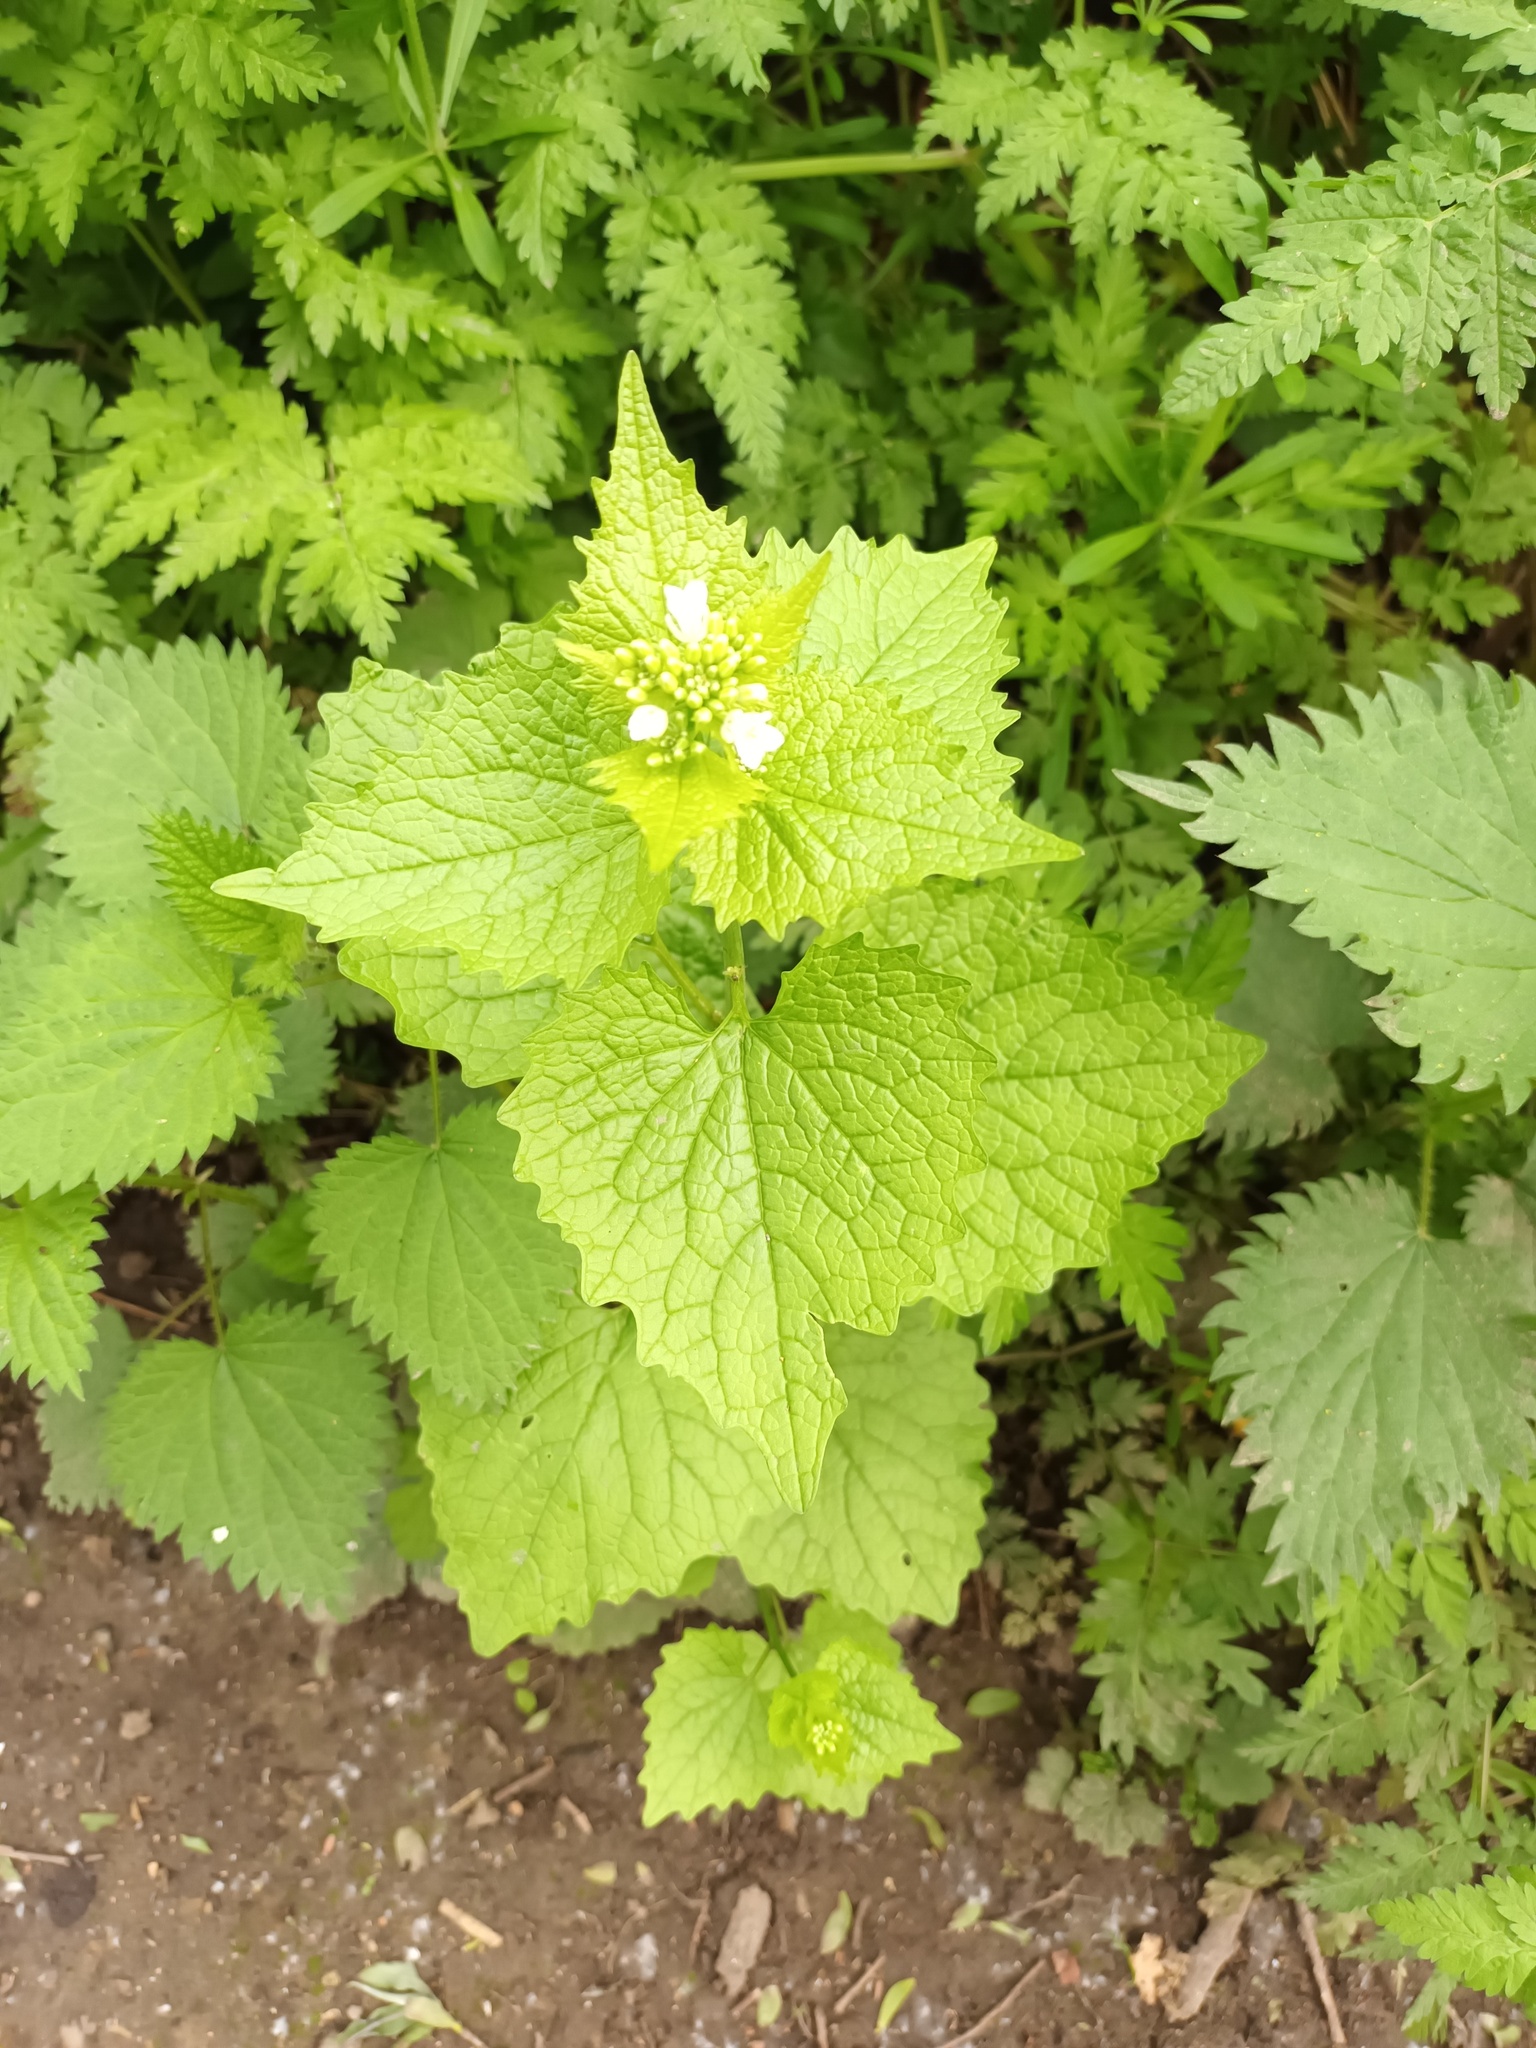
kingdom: Plantae
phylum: Tracheophyta
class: Magnoliopsida
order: Brassicales
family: Brassicaceae
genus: Alliaria
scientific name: Alliaria petiolata
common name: Garlic mustard
